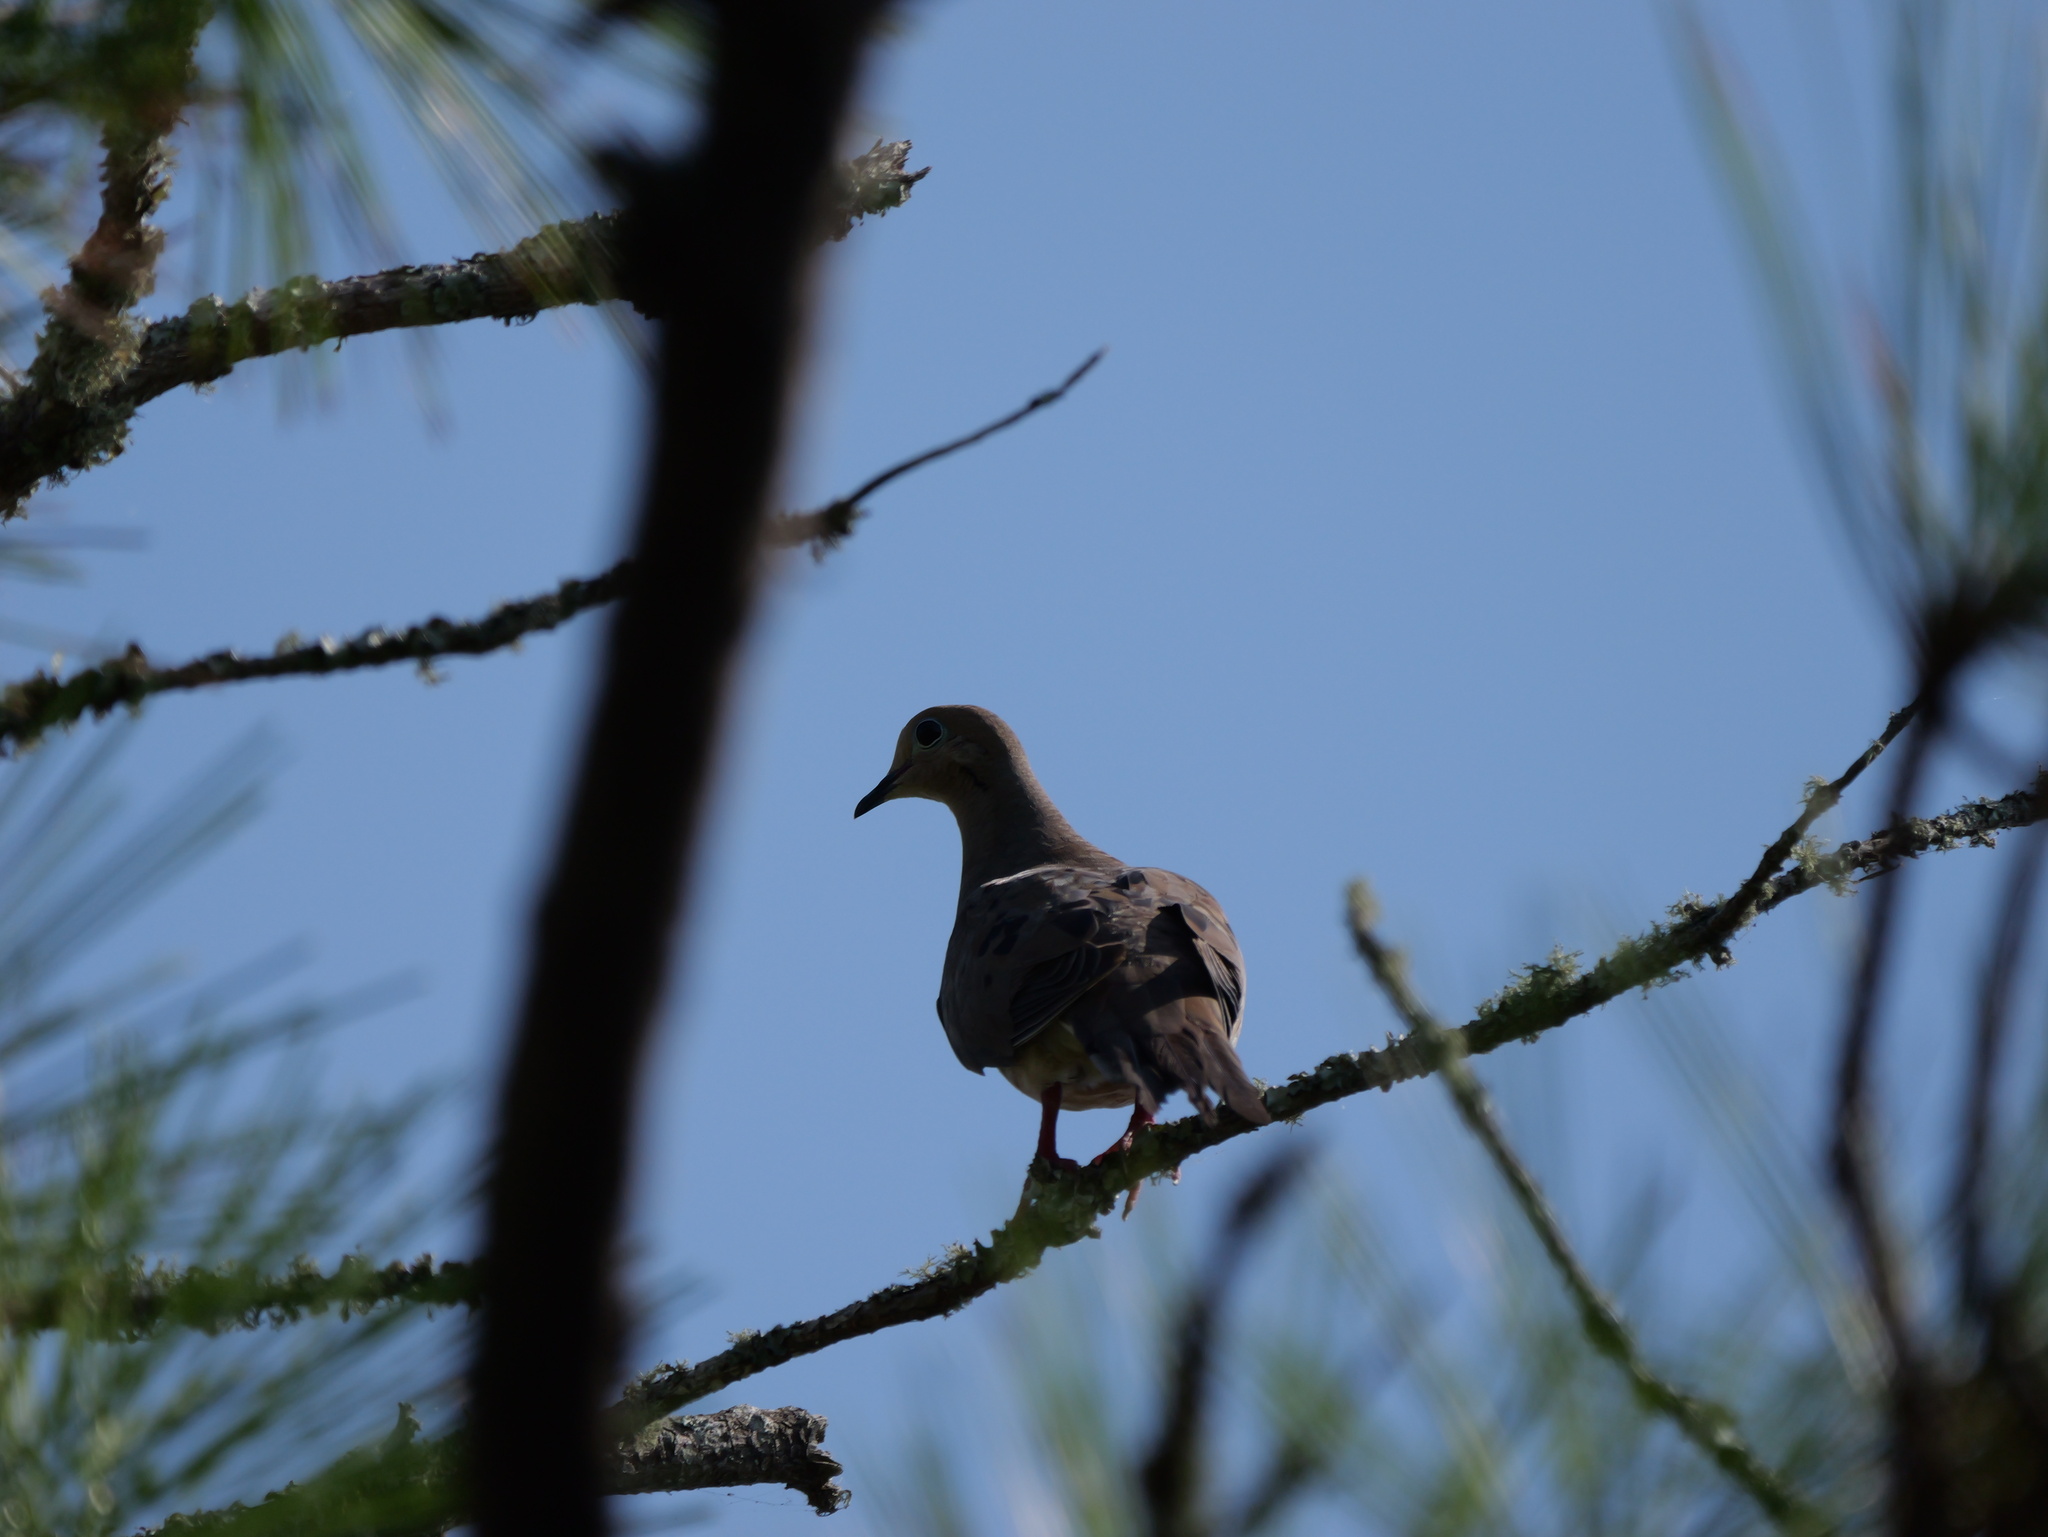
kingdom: Animalia
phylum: Chordata
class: Aves
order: Columbiformes
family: Columbidae
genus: Zenaida
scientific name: Zenaida macroura
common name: Mourning dove
